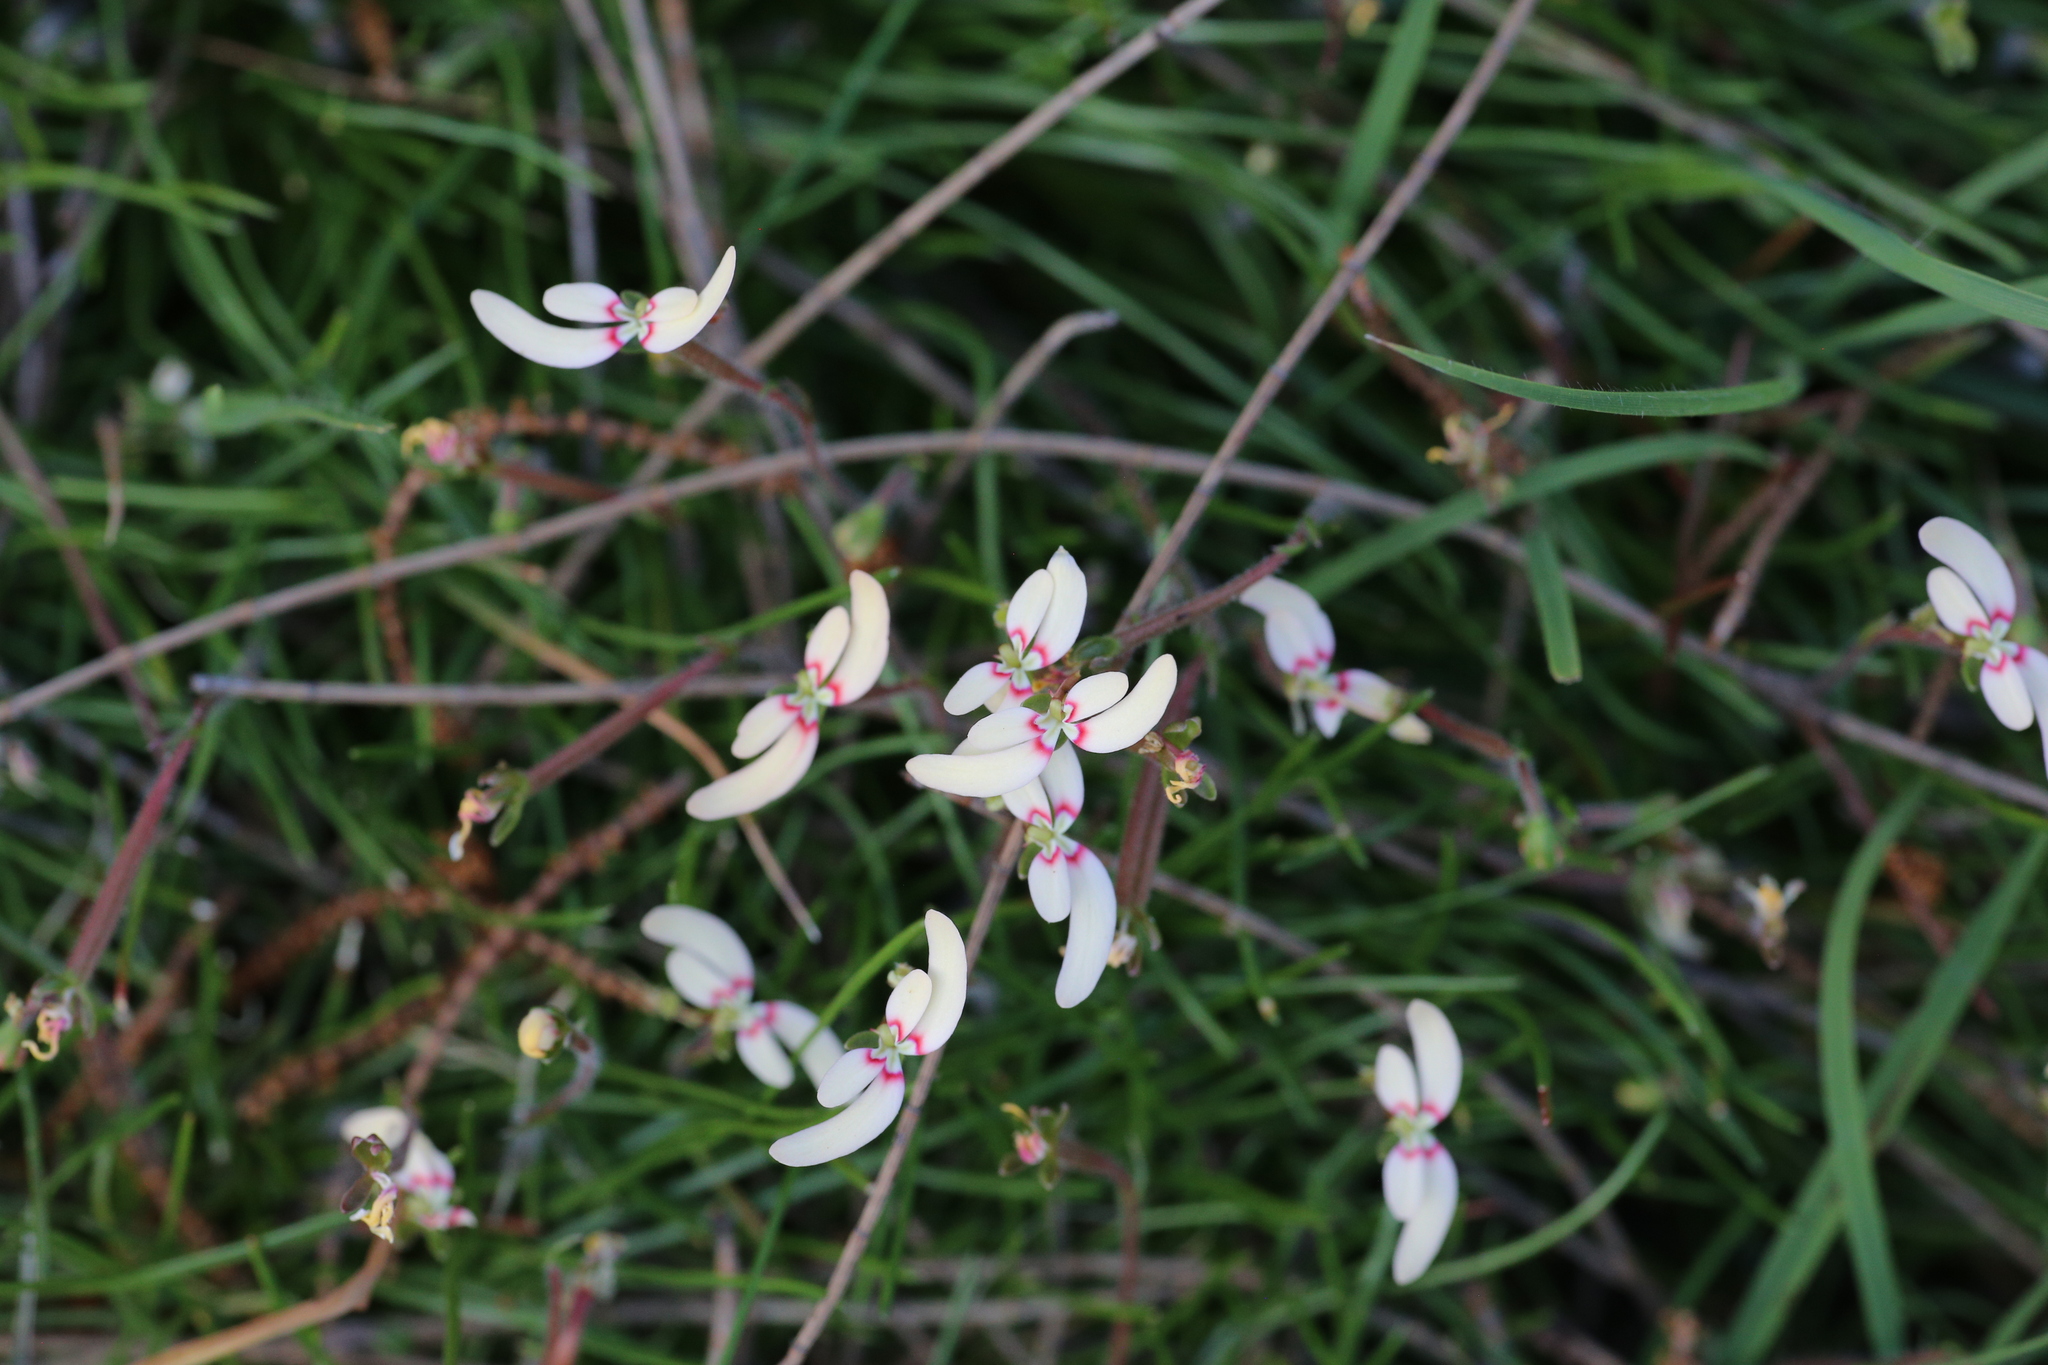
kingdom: Plantae
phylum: Tracheophyta
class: Magnoliopsida
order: Asterales
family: Stylidiaceae
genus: Stylidium
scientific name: Stylidium uniflorum
